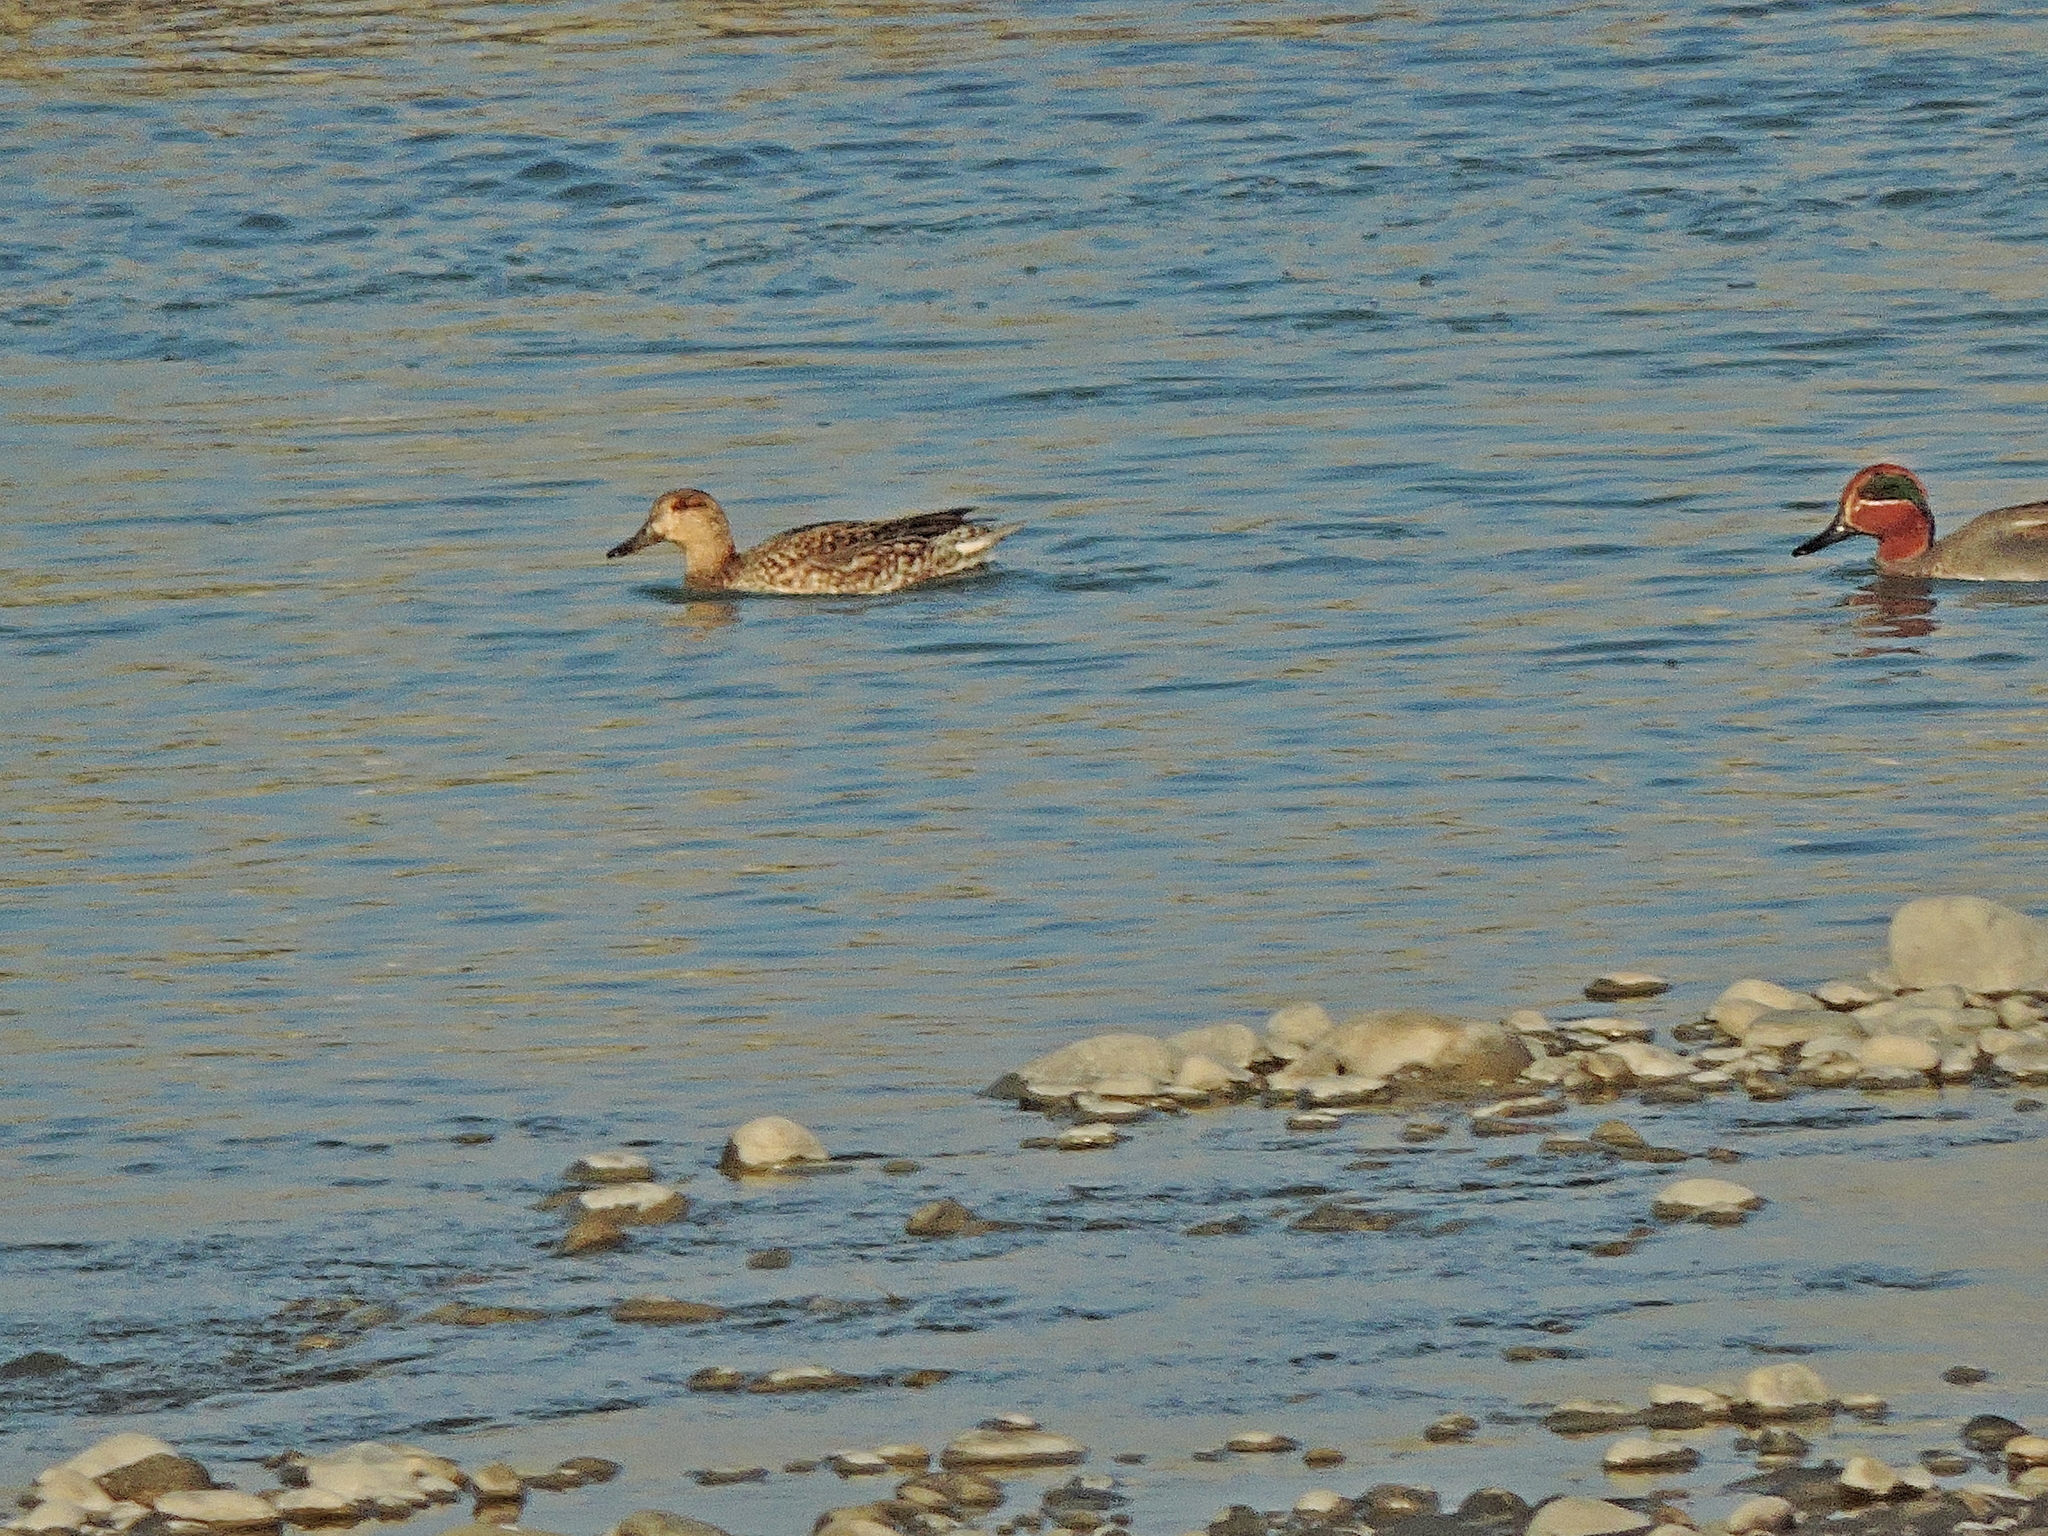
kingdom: Animalia
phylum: Chordata
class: Aves
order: Anseriformes
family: Anatidae
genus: Anas
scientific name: Anas crecca
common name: Eurasian teal
